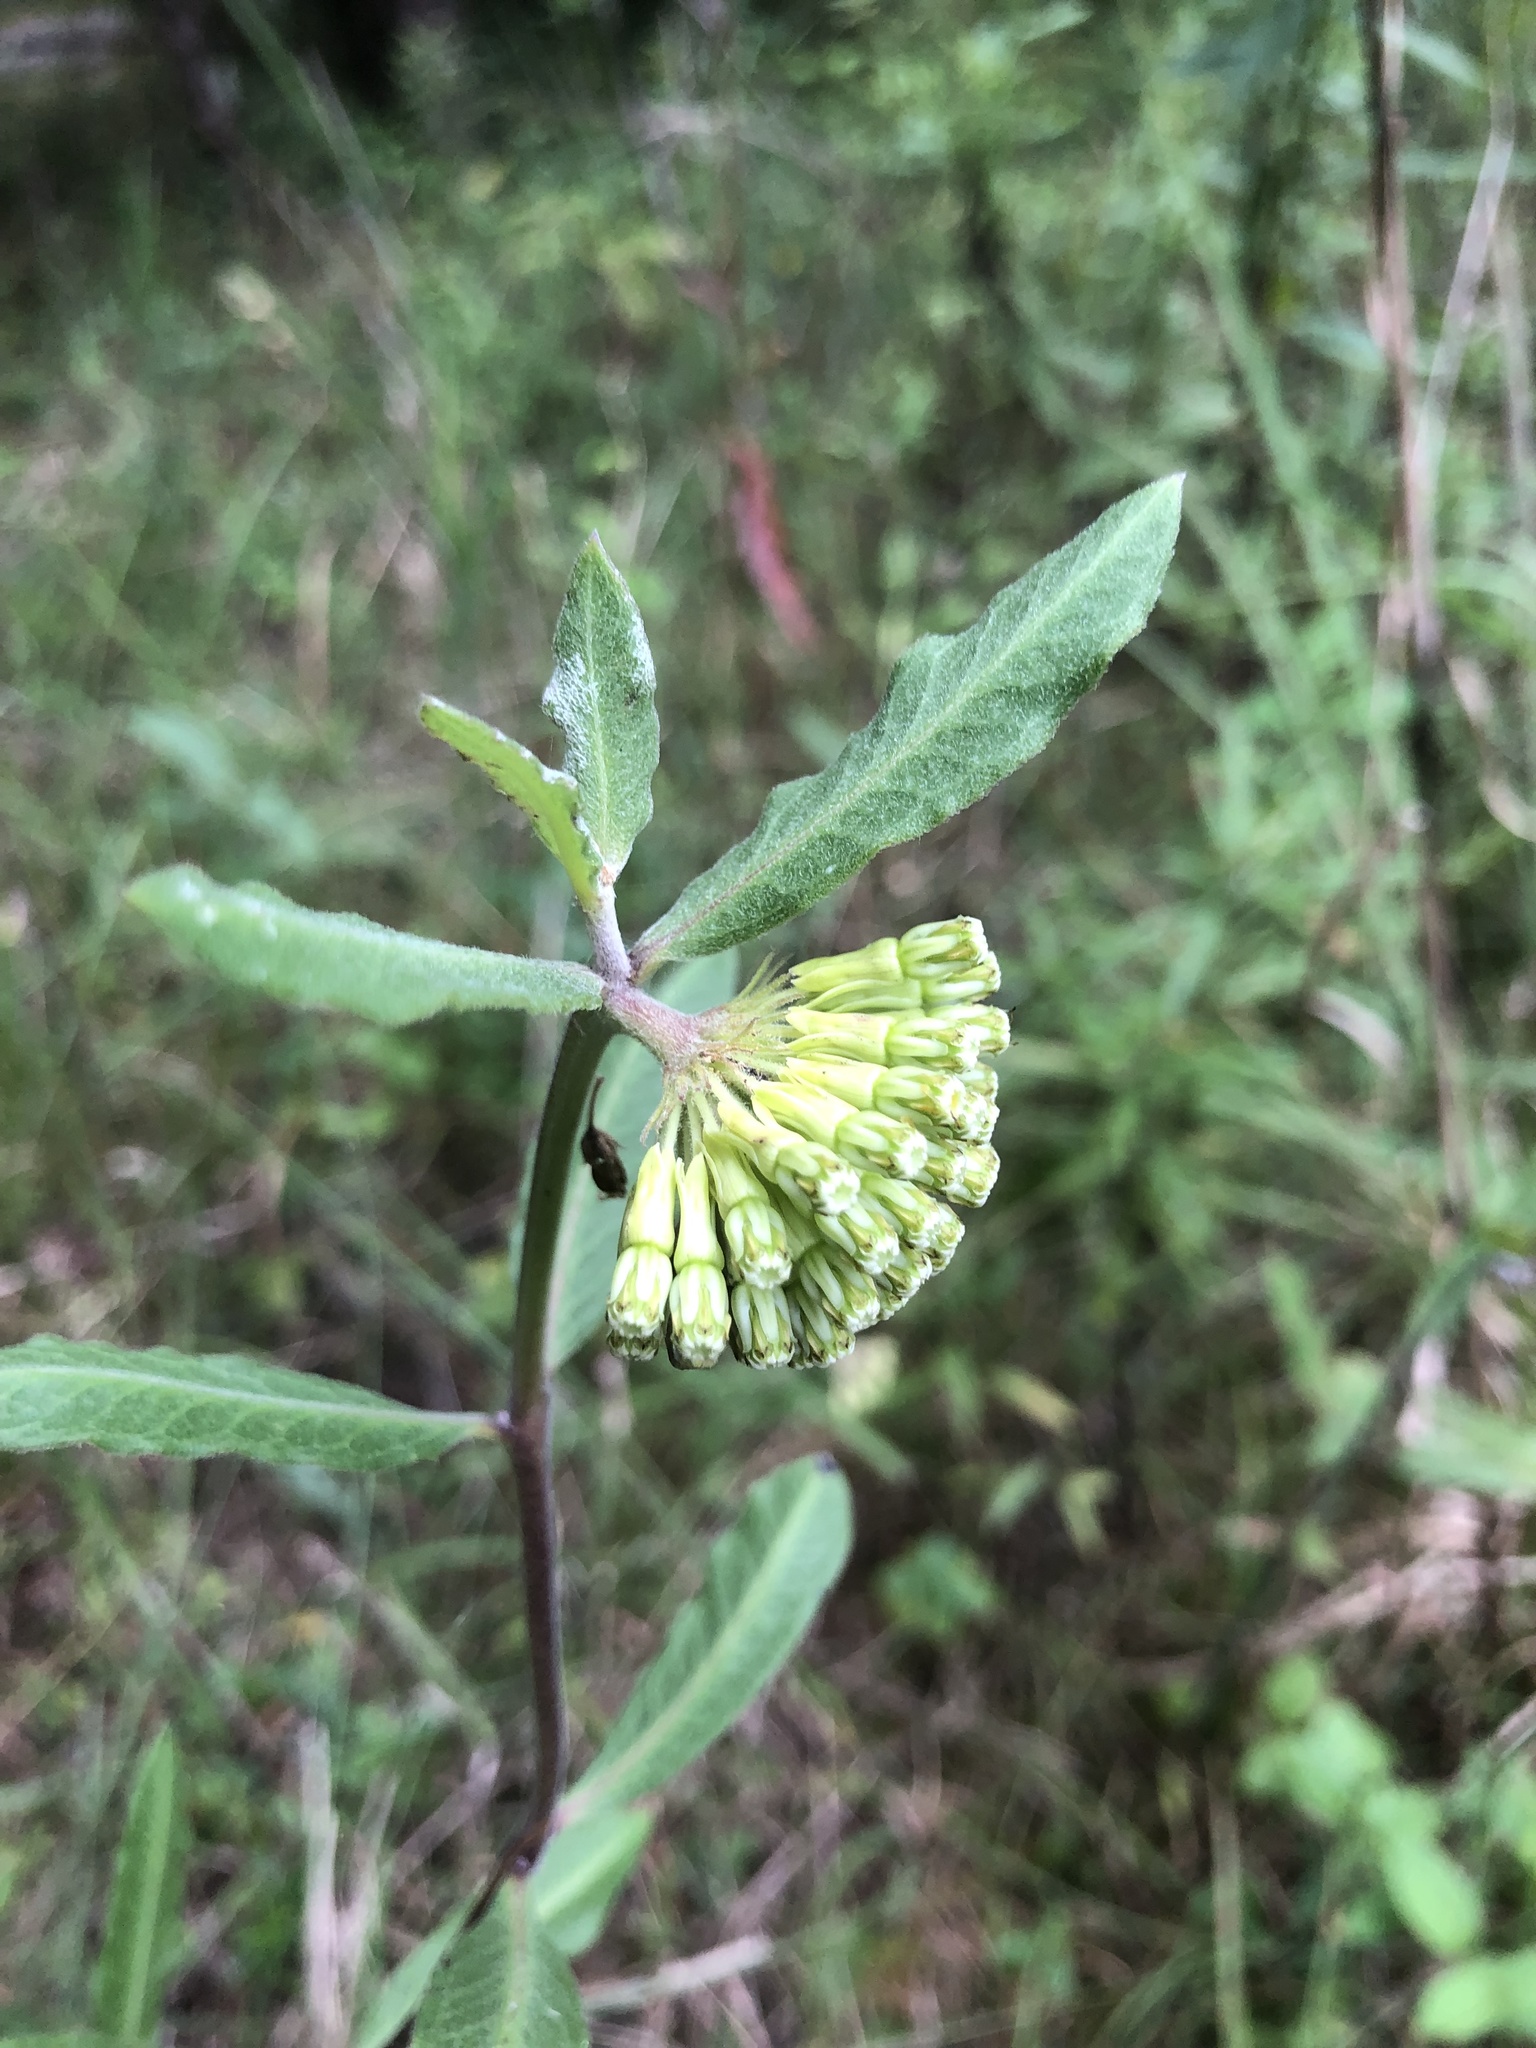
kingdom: Plantae
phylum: Tracheophyta
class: Magnoliopsida
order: Gentianales
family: Apocynaceae
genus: Asclepias
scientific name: Asclepias viridiflora
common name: Green comet milkweed
